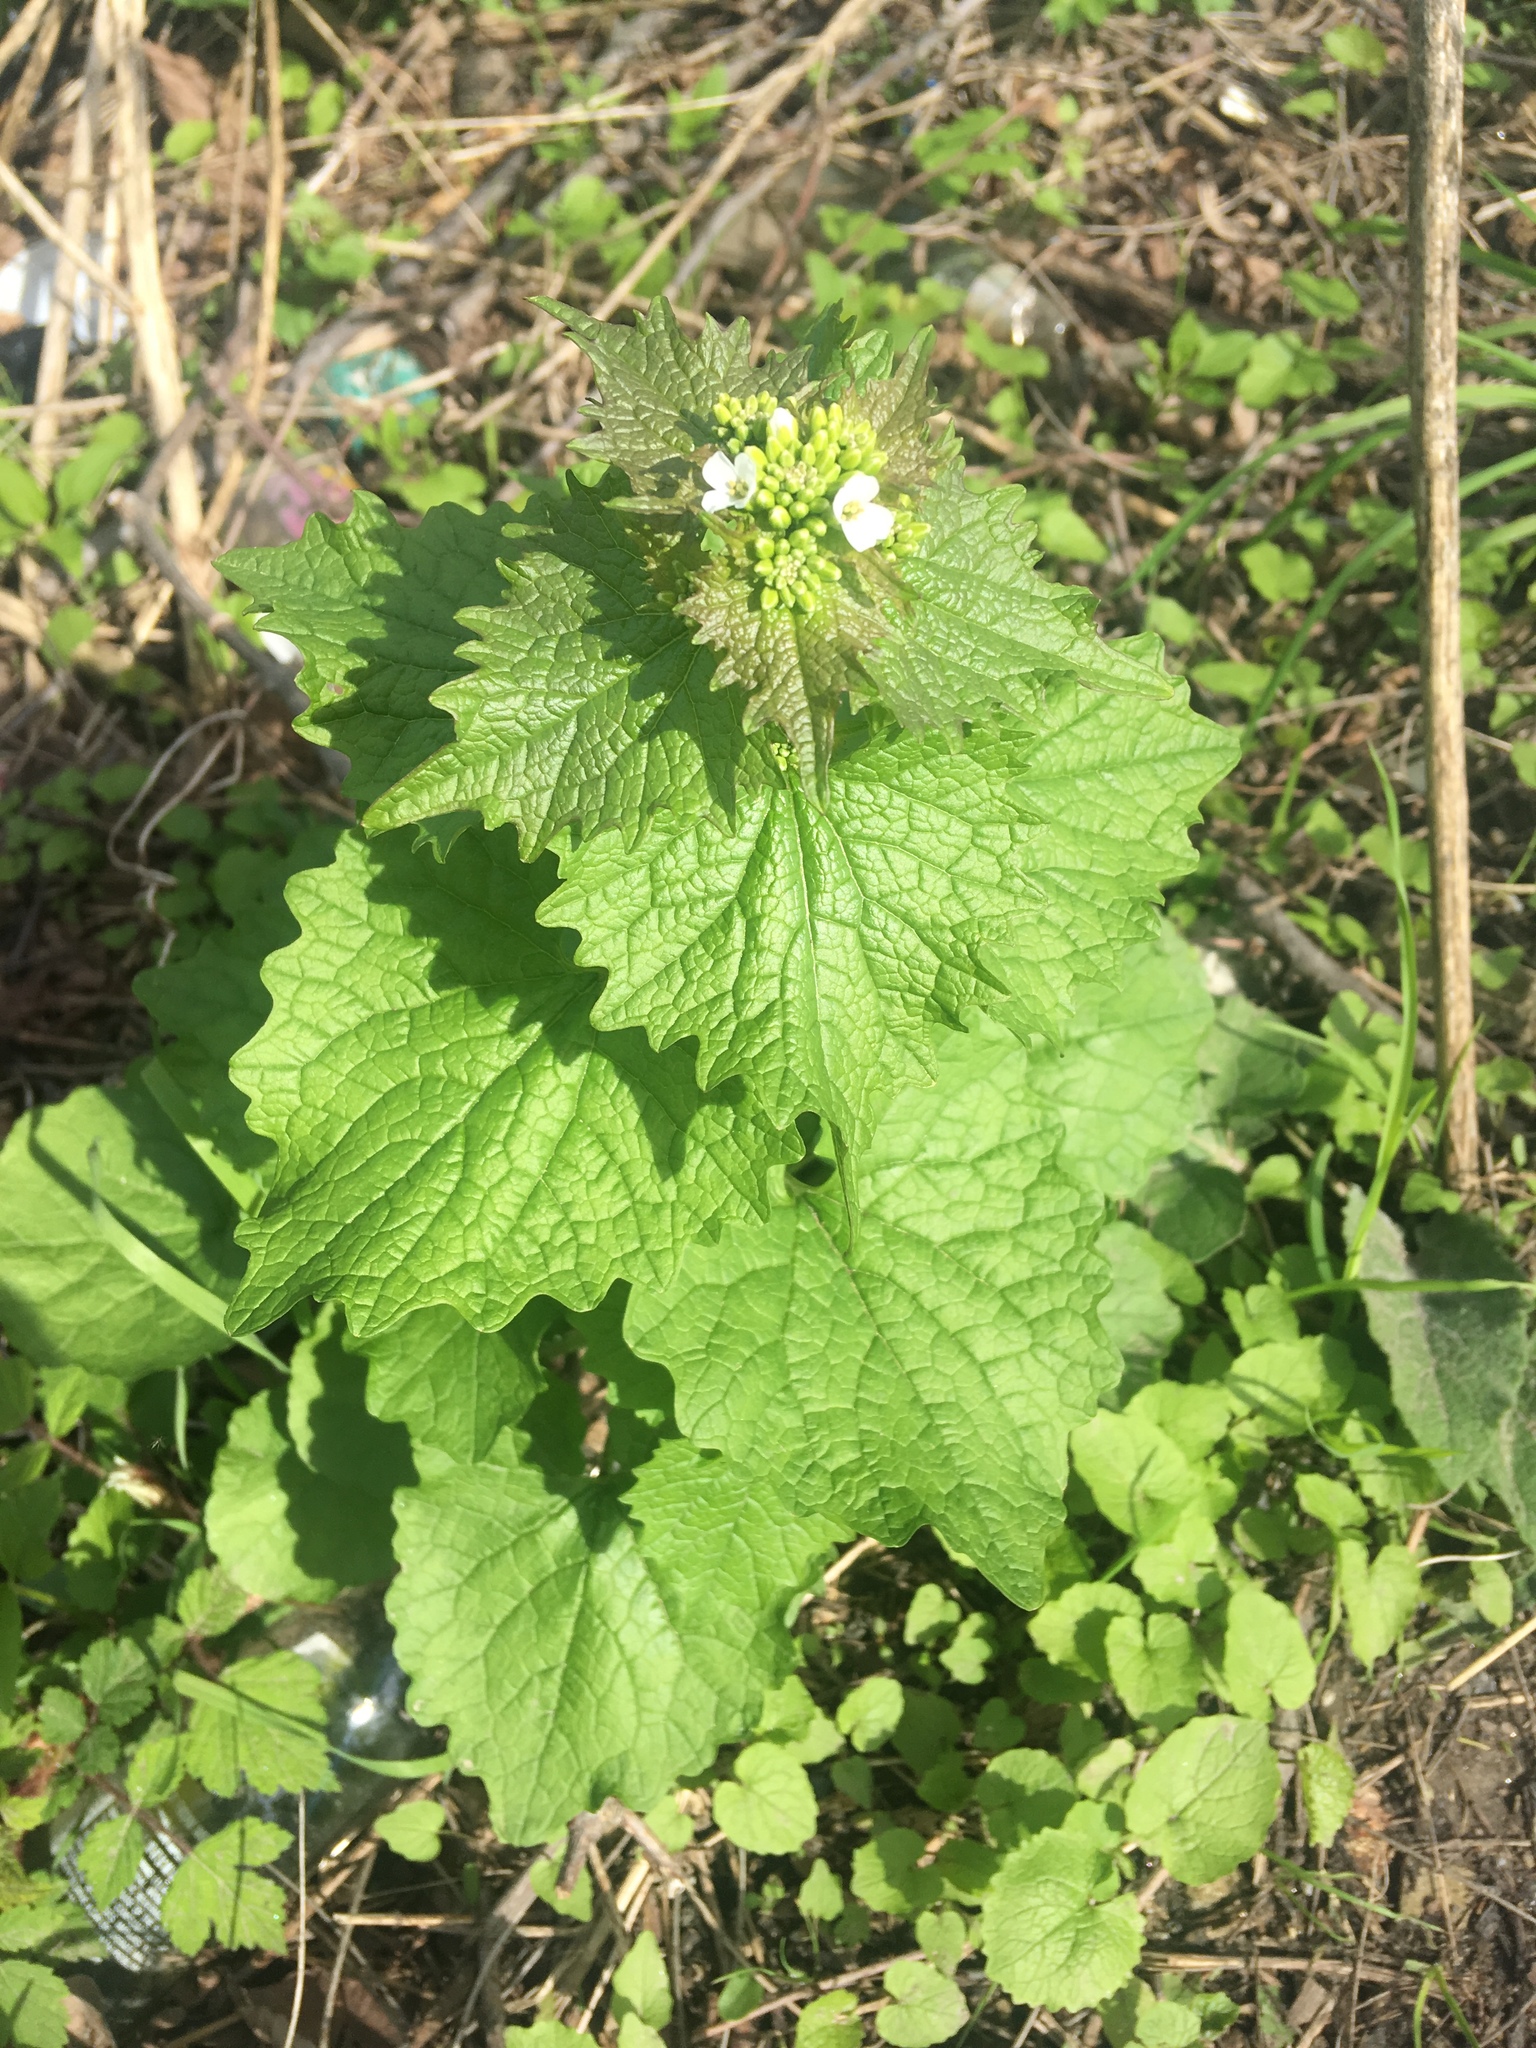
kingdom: Plantae
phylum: Tracheophyta
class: Magnoliopsida
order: Brassicales
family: Brassicaceae
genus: Alliaria
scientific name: Alliaria petiolata
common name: Garlic mustard
